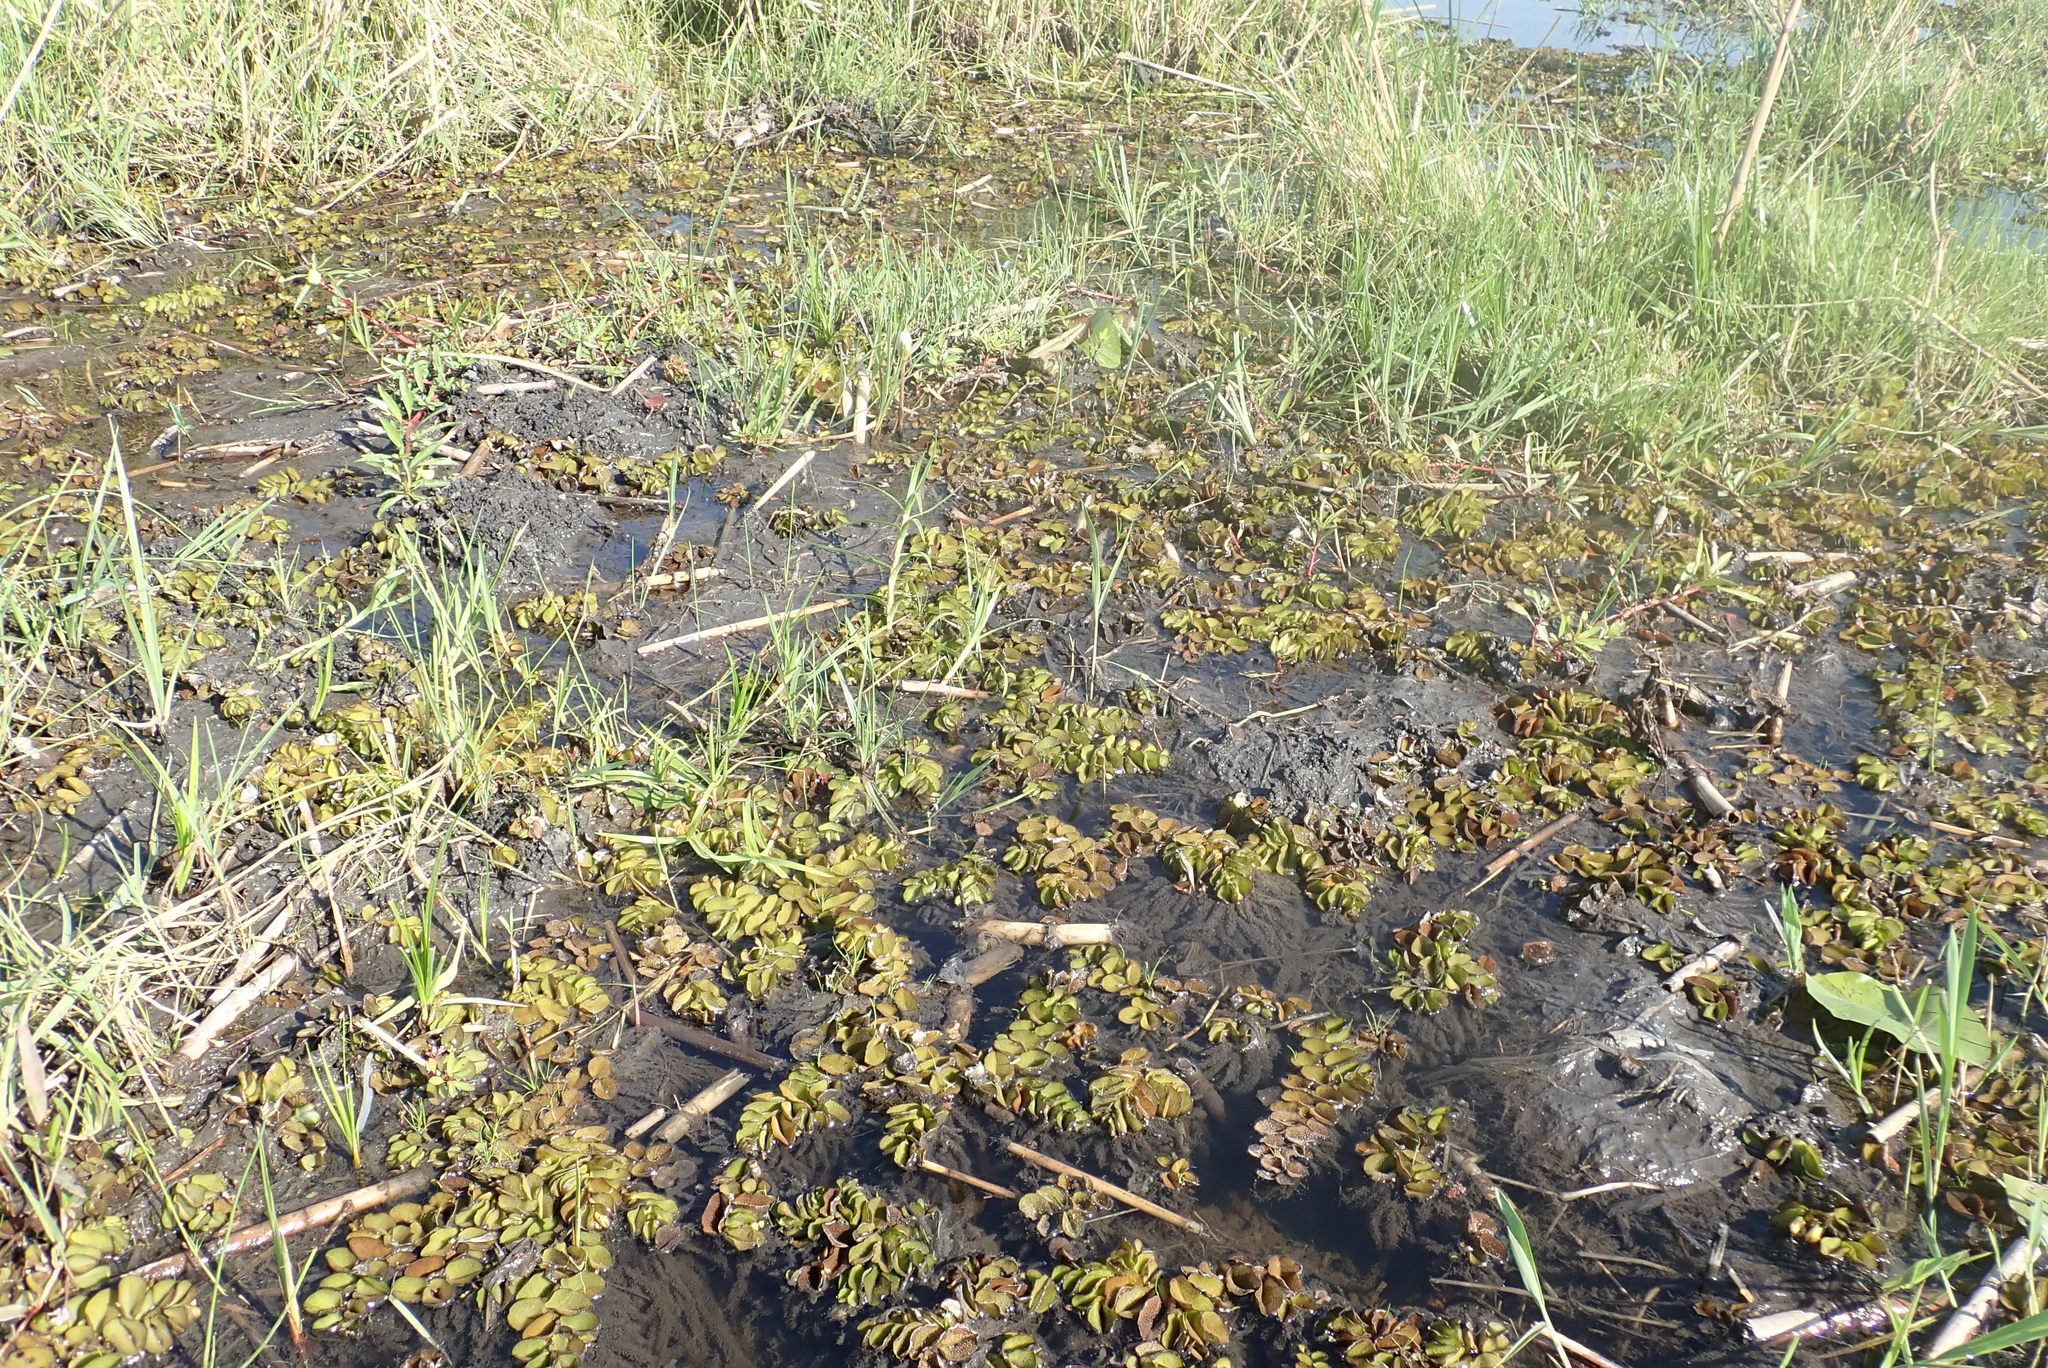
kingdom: Plantae
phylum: Tracheophyta
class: Polypodiopsida
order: Salviniales
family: Salviniaceae
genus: Salvinia
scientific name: Salvinia molesta
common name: Kariba weed
